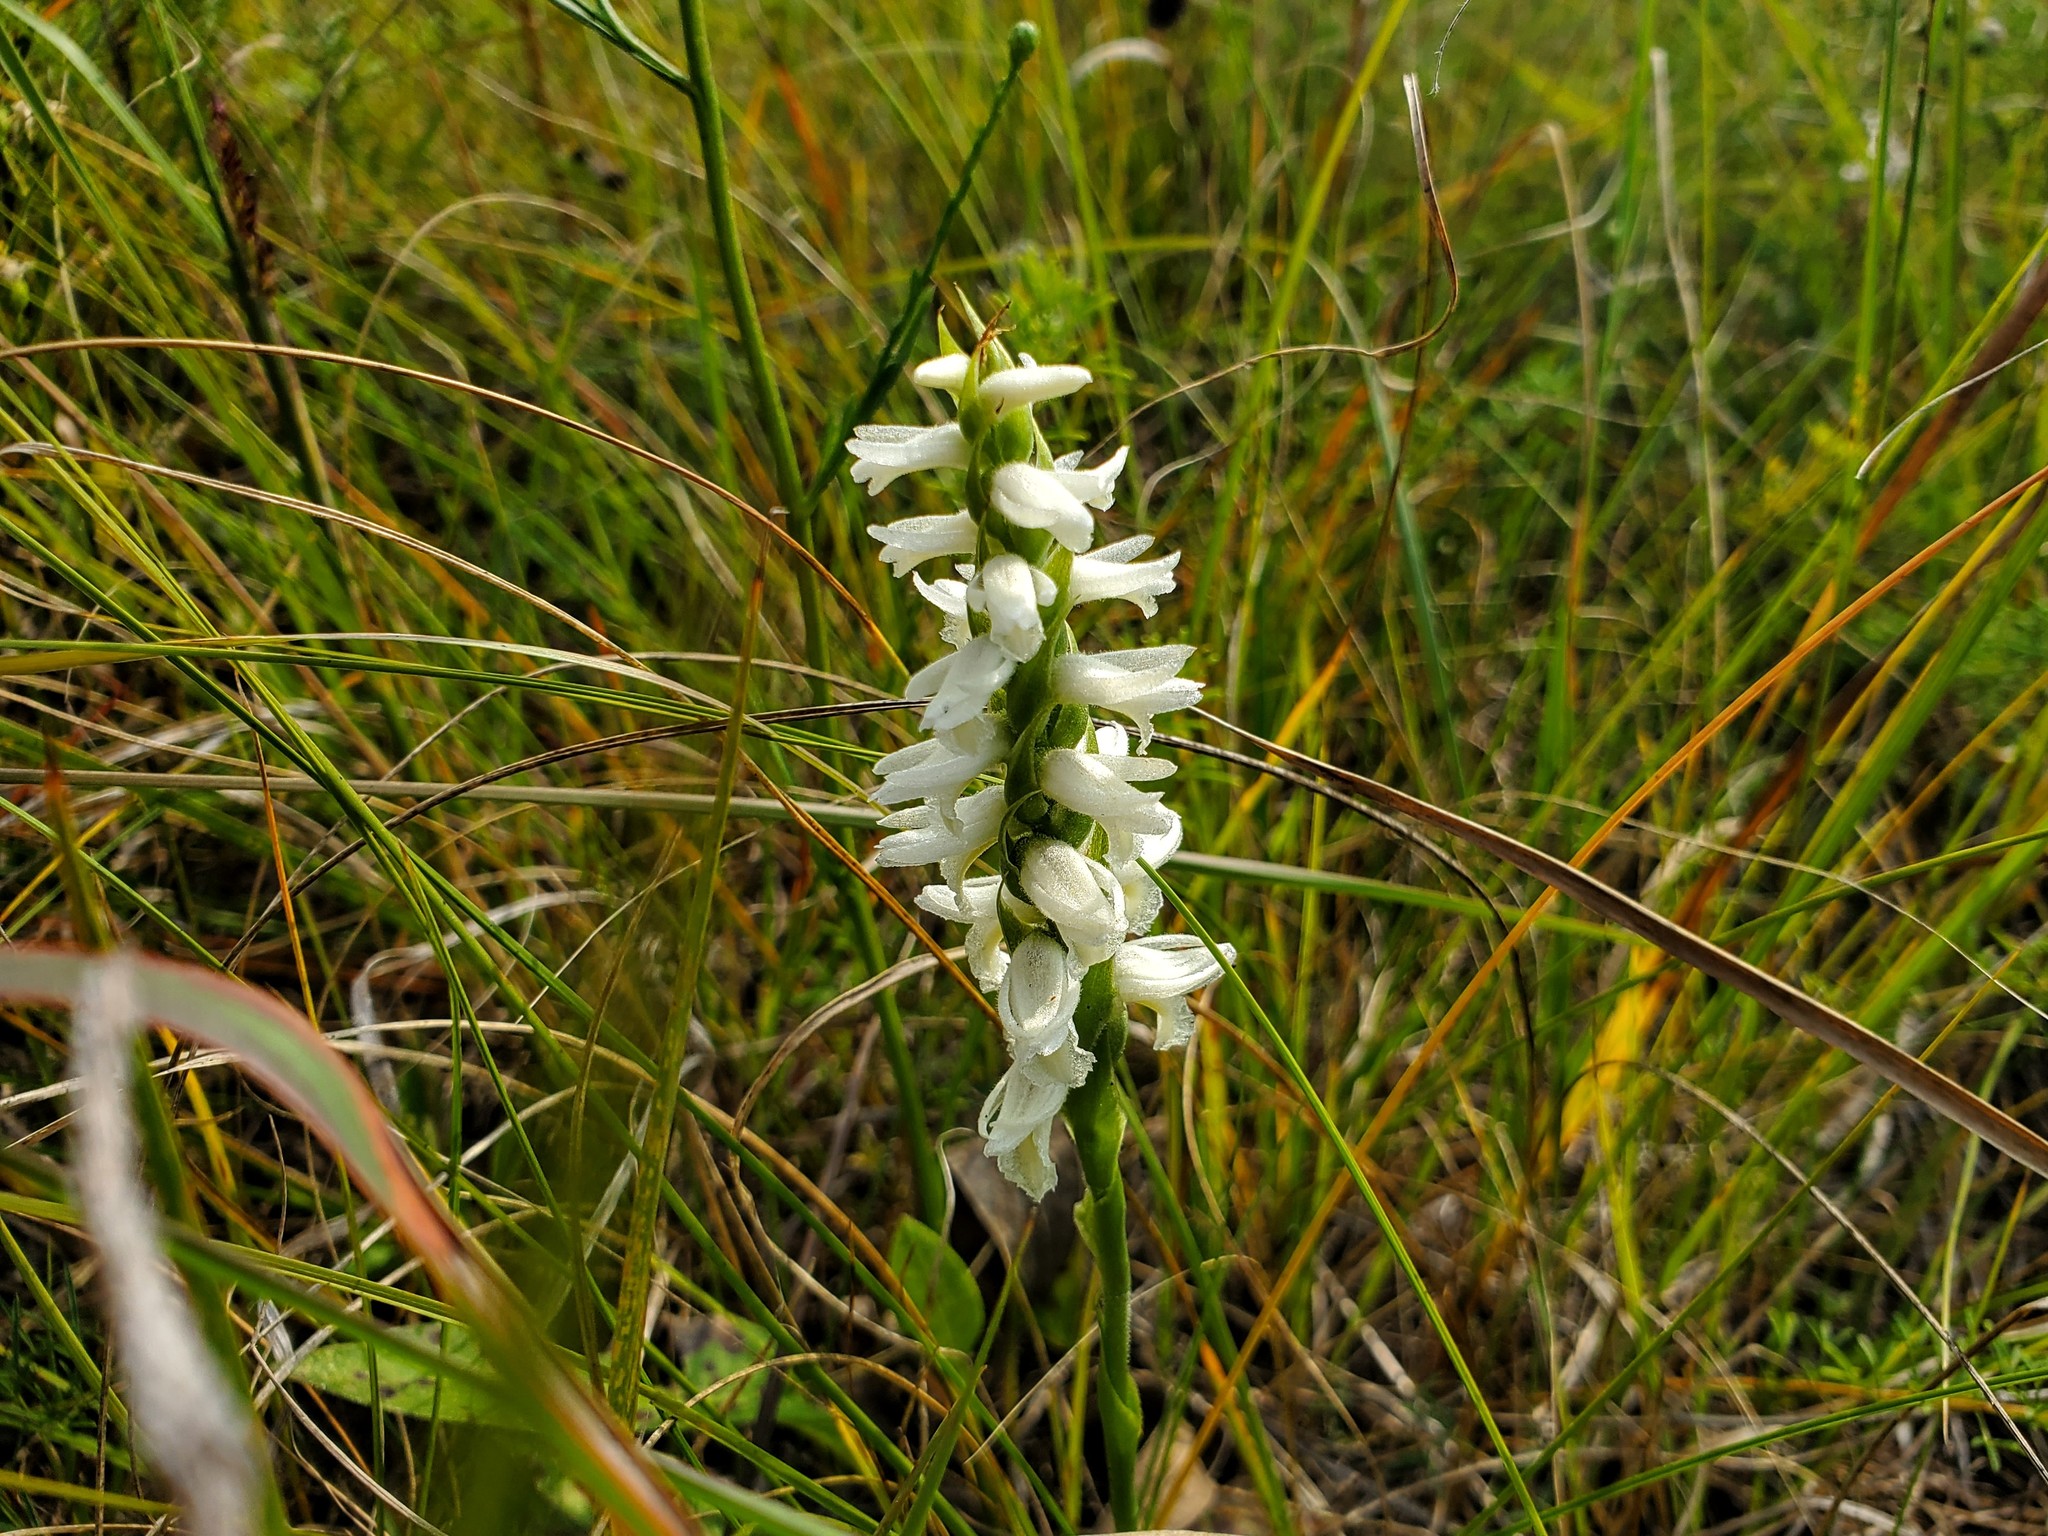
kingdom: Plantae
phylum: Tracheophyta
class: Liliopsida
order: Asparagales
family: Orchidaceae
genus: Spiranthes
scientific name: Spiranthes magnicamporum
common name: Great plains ladies'-tresses
